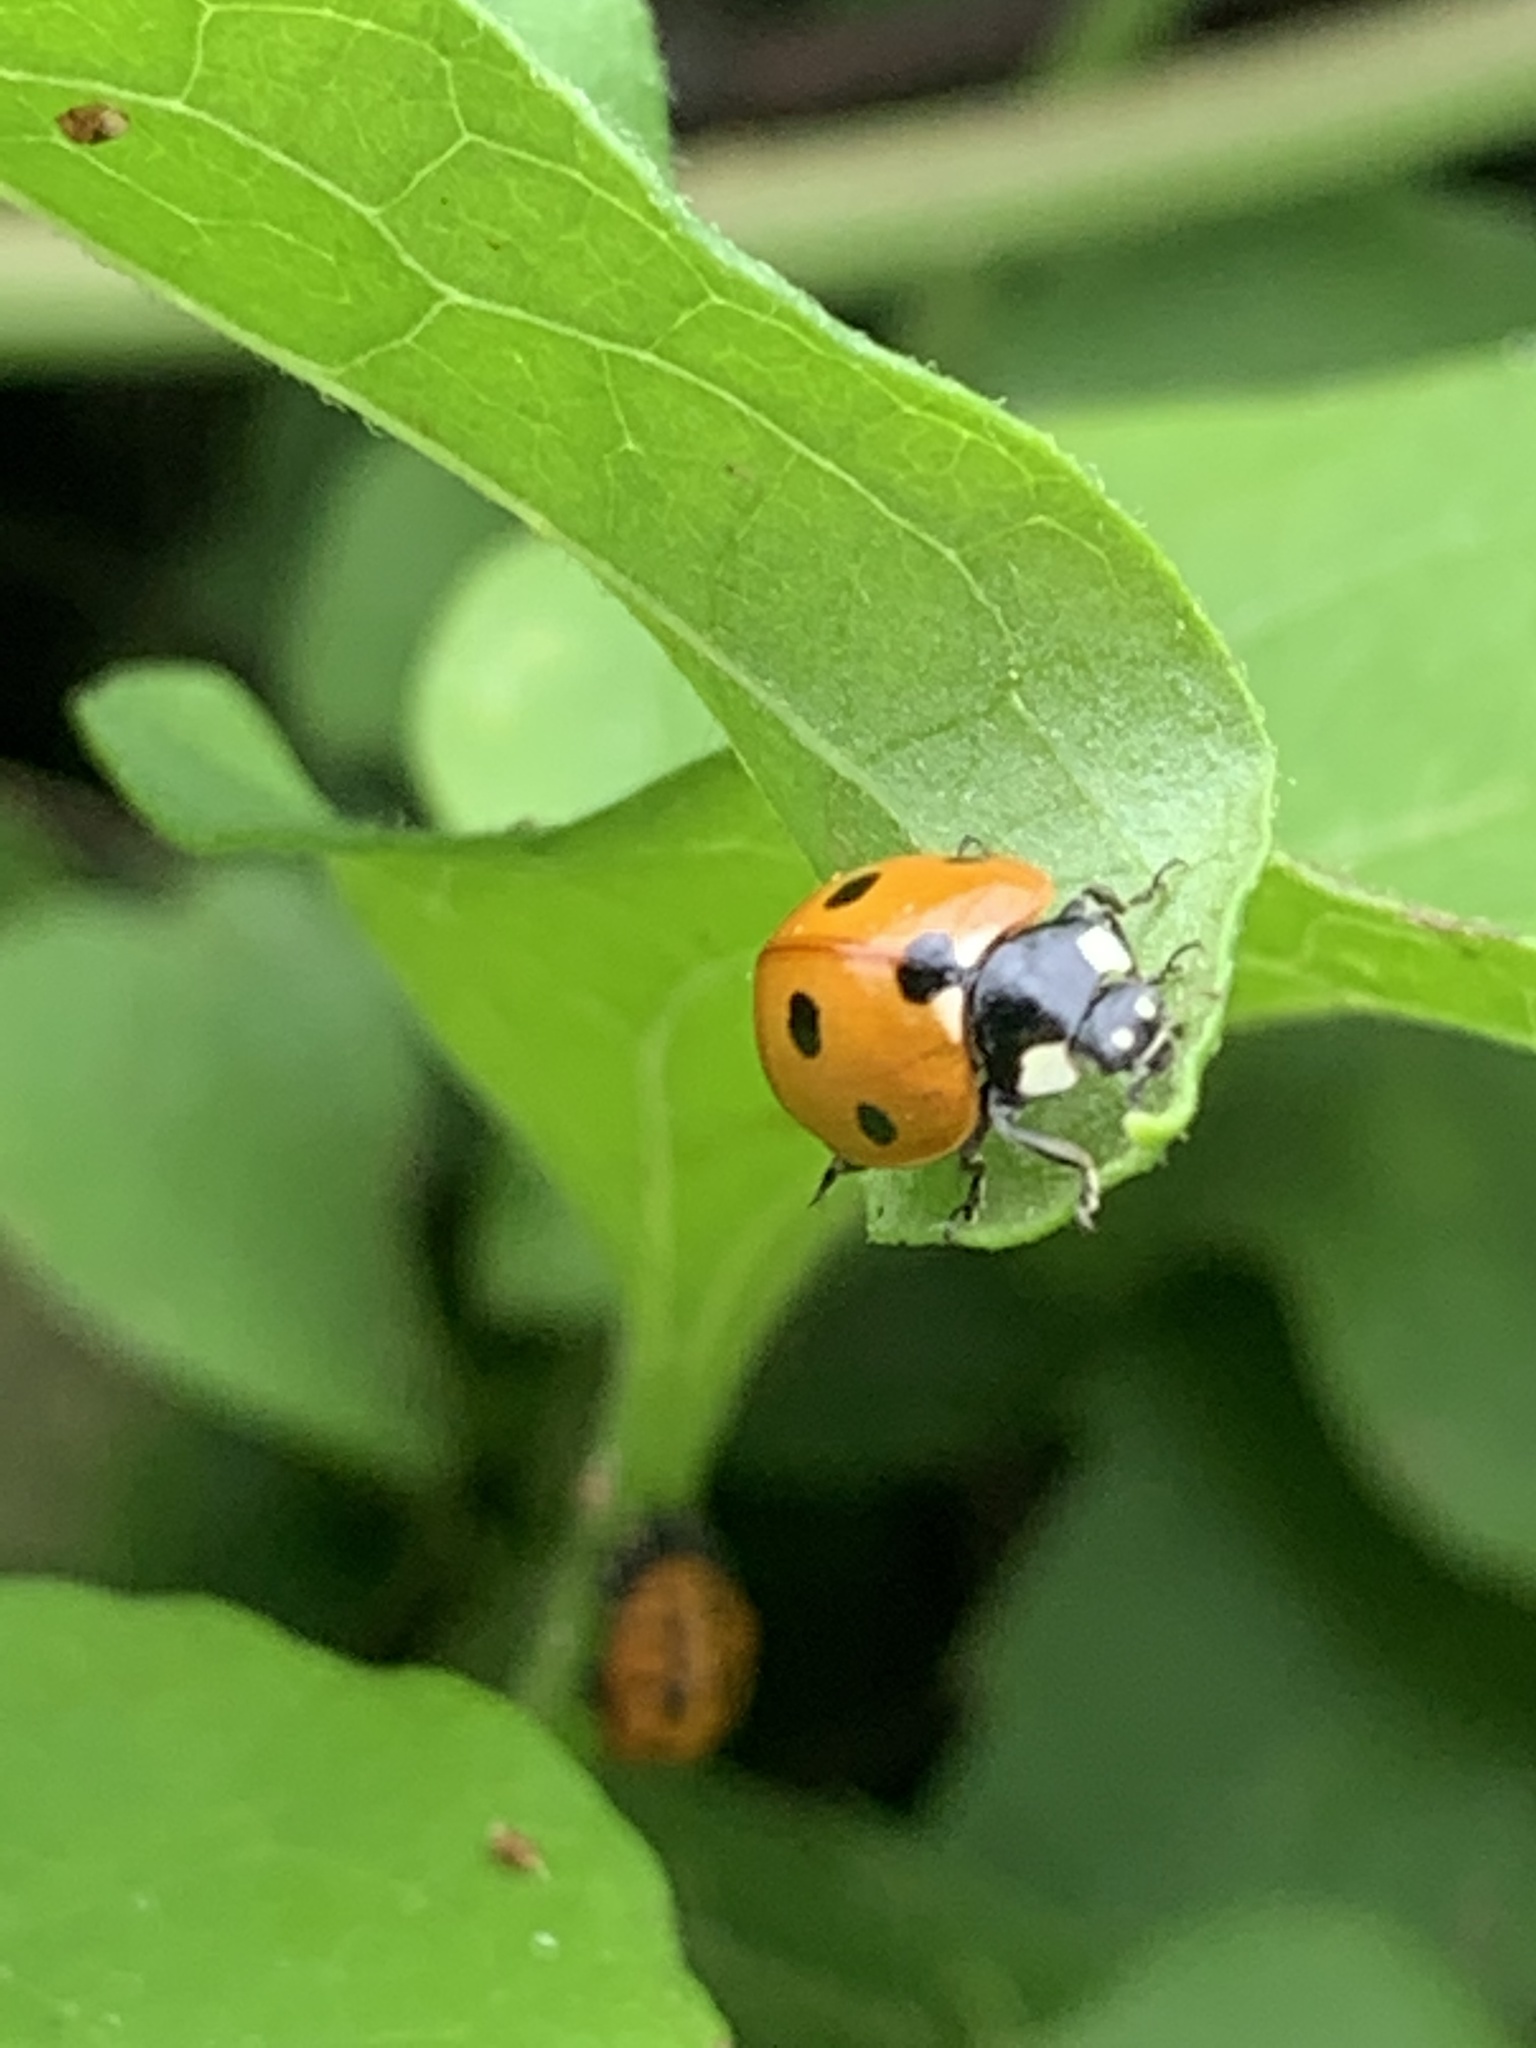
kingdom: Animalia
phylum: Arthropoda
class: Insecta
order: Coleoptera
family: Coccinellidae
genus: Coccinella
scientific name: Coccinella septempunctata
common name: Sevenspotted lady beetle
